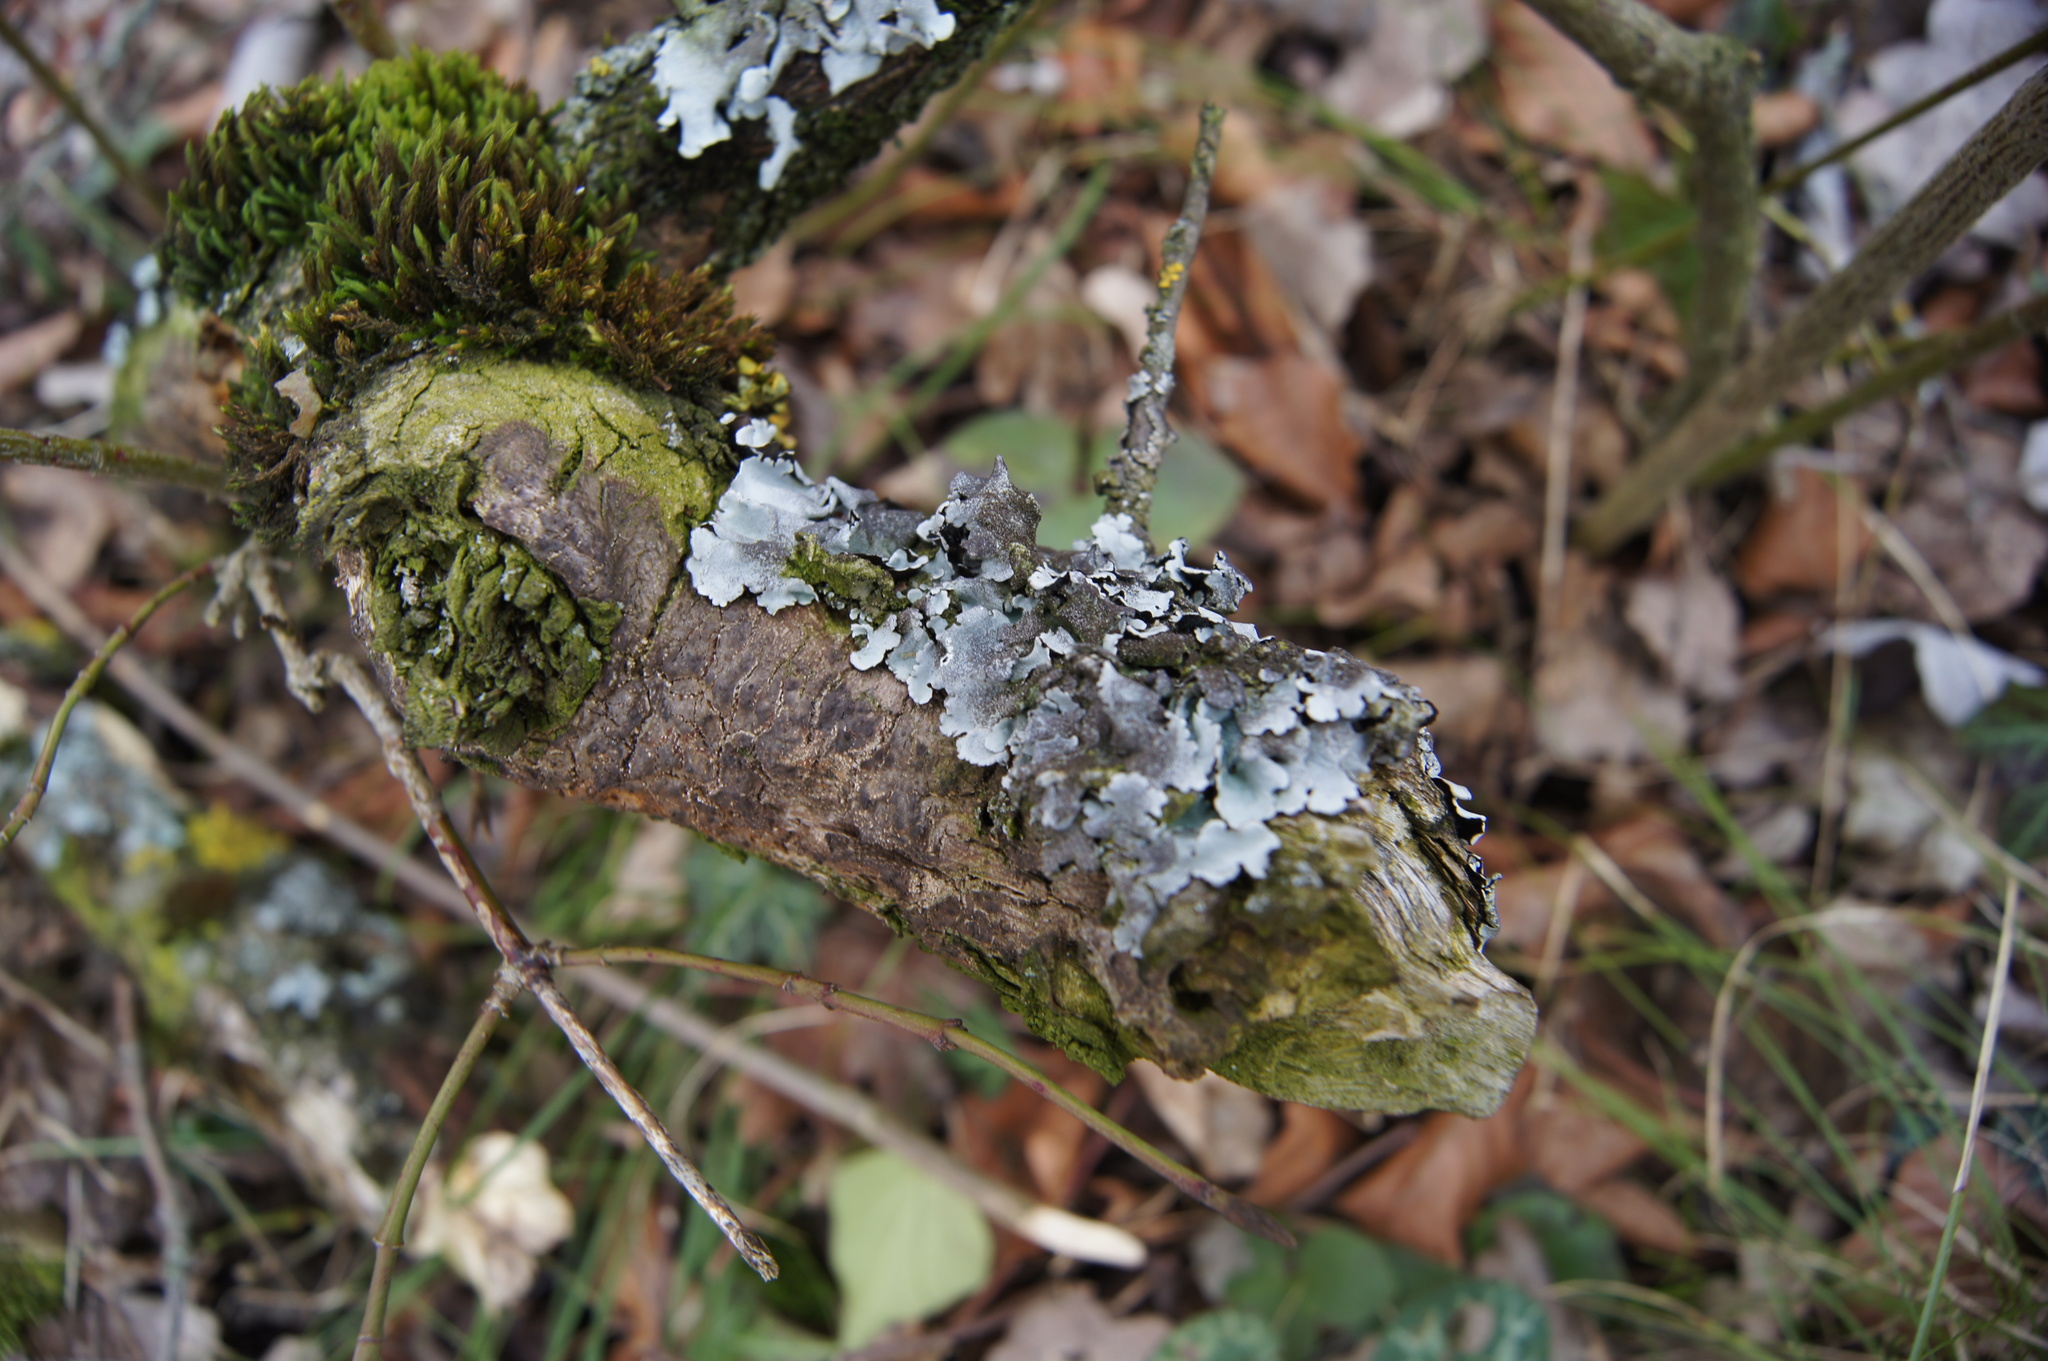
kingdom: Fungi
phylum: Ascomycota
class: Lecanoromycetes
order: Lecanorales
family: Parmeliaceae
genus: Parmelina
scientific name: Parmelina tiliacea
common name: Linden shield lichen
